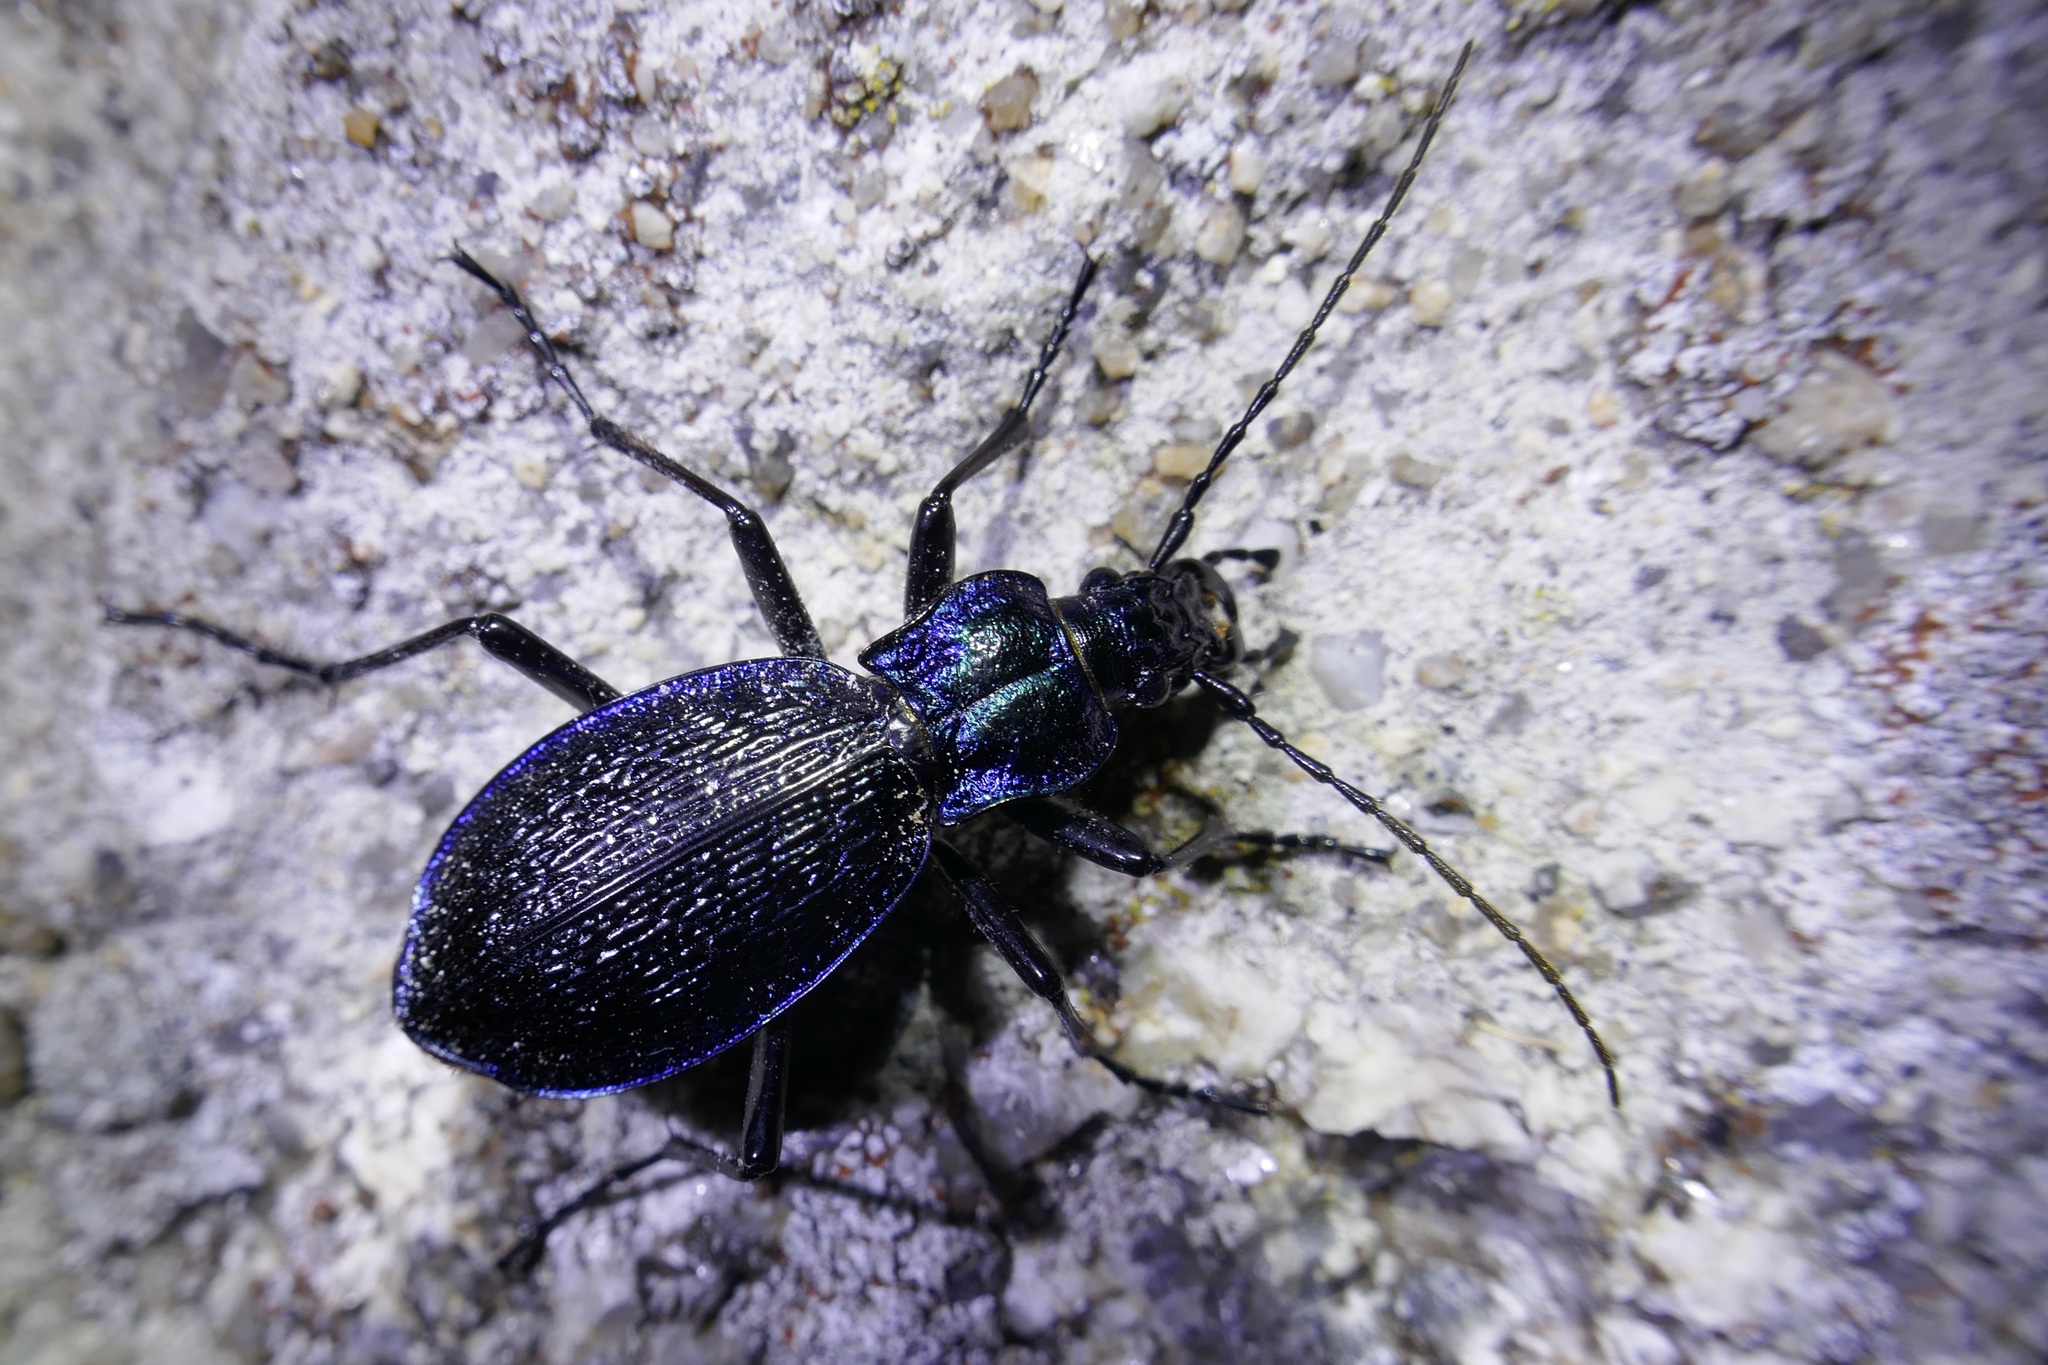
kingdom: Animalia
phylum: Arthropoda
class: Insecta
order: Coleoptera
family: Carabidae
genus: Carabus
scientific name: Carabus intricatus
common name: Blue ground beetle
